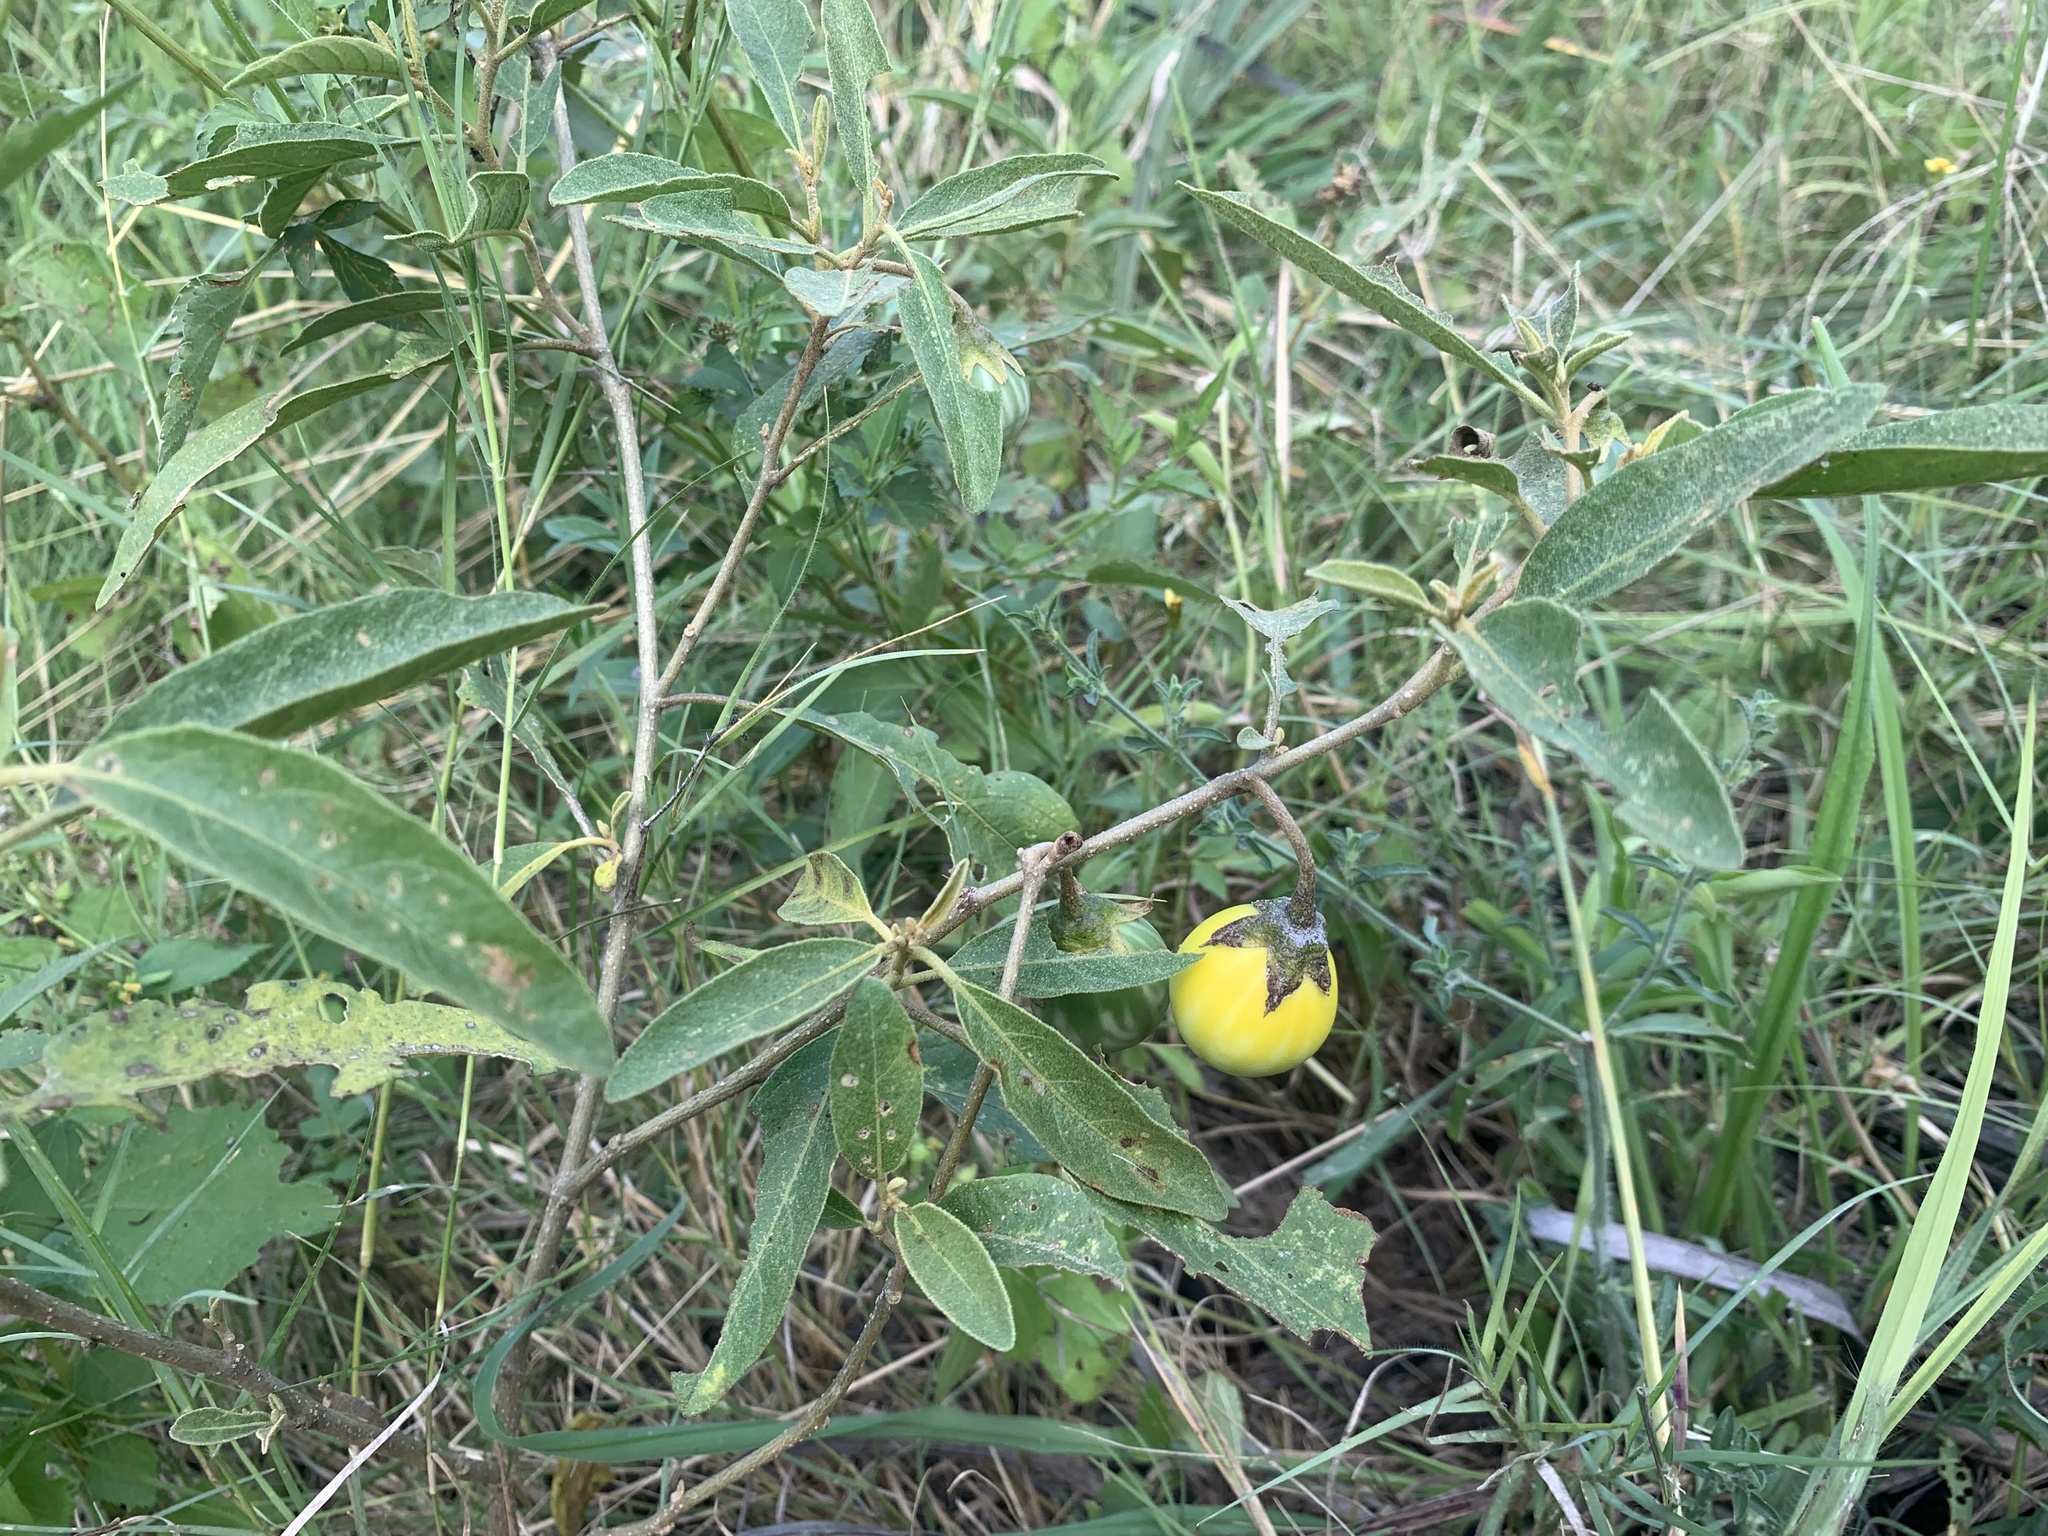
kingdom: Plantae
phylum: Tracheophyta
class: Magnoliopsida
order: Solanales
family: Solanaceae
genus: Solanum
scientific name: Solanum campylacanthum
